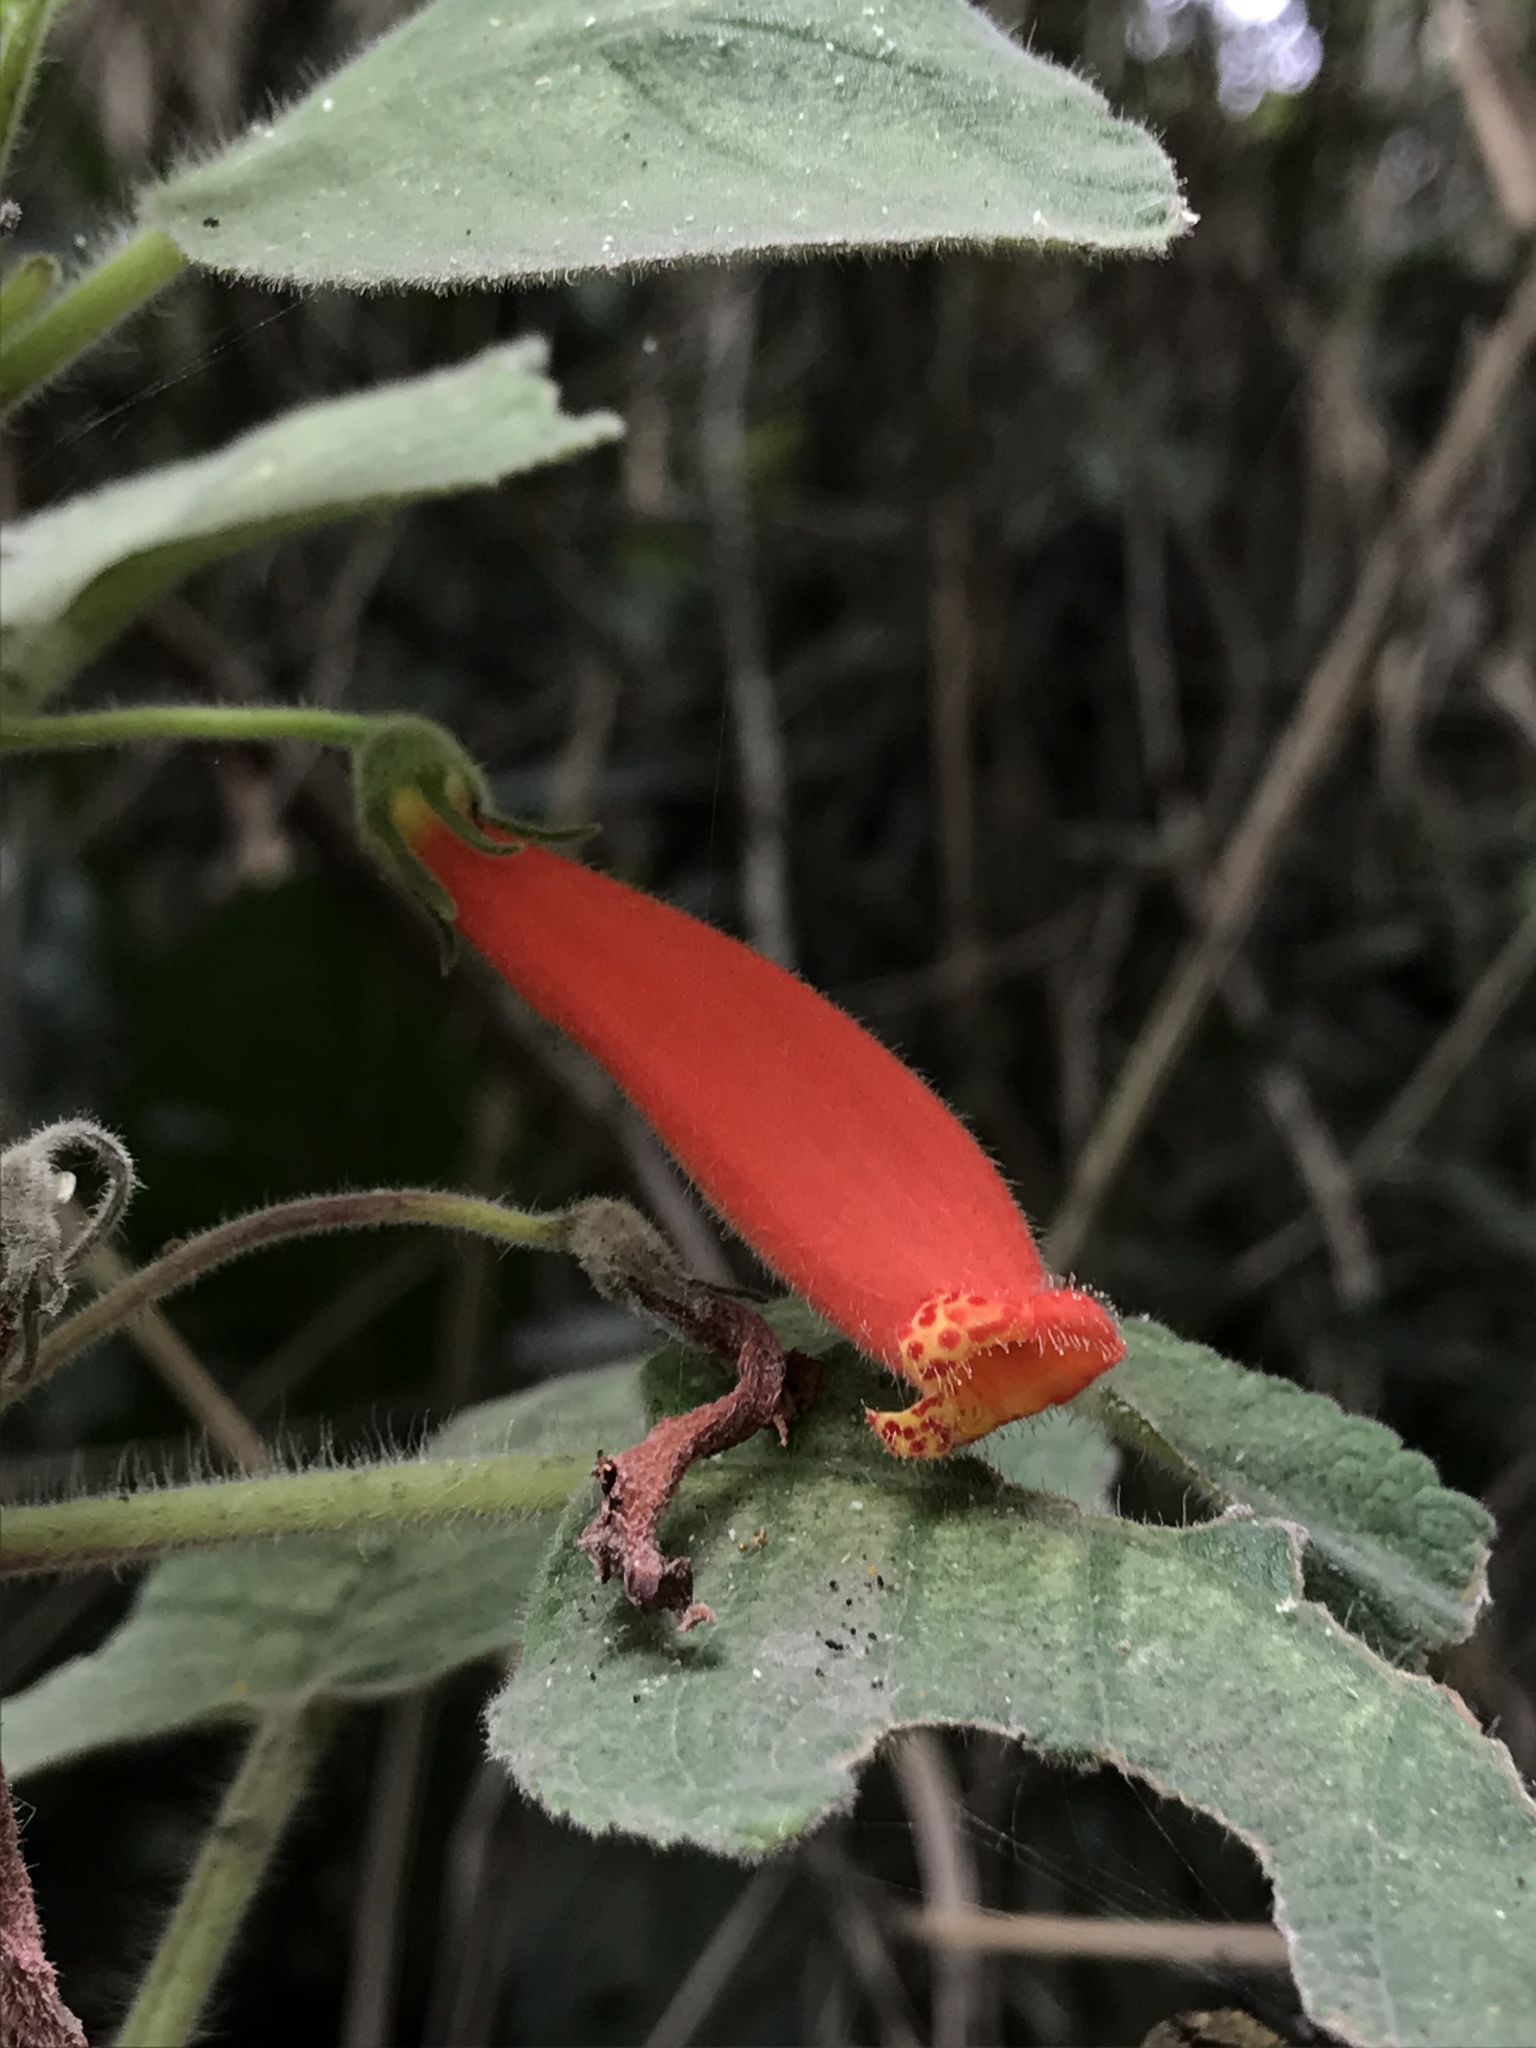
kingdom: Plantae
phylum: Tracheophyta
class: Magnoliopsida
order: Lamiales
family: Gesneriaceae
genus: Kohleria
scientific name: Kohleria hirsuta
